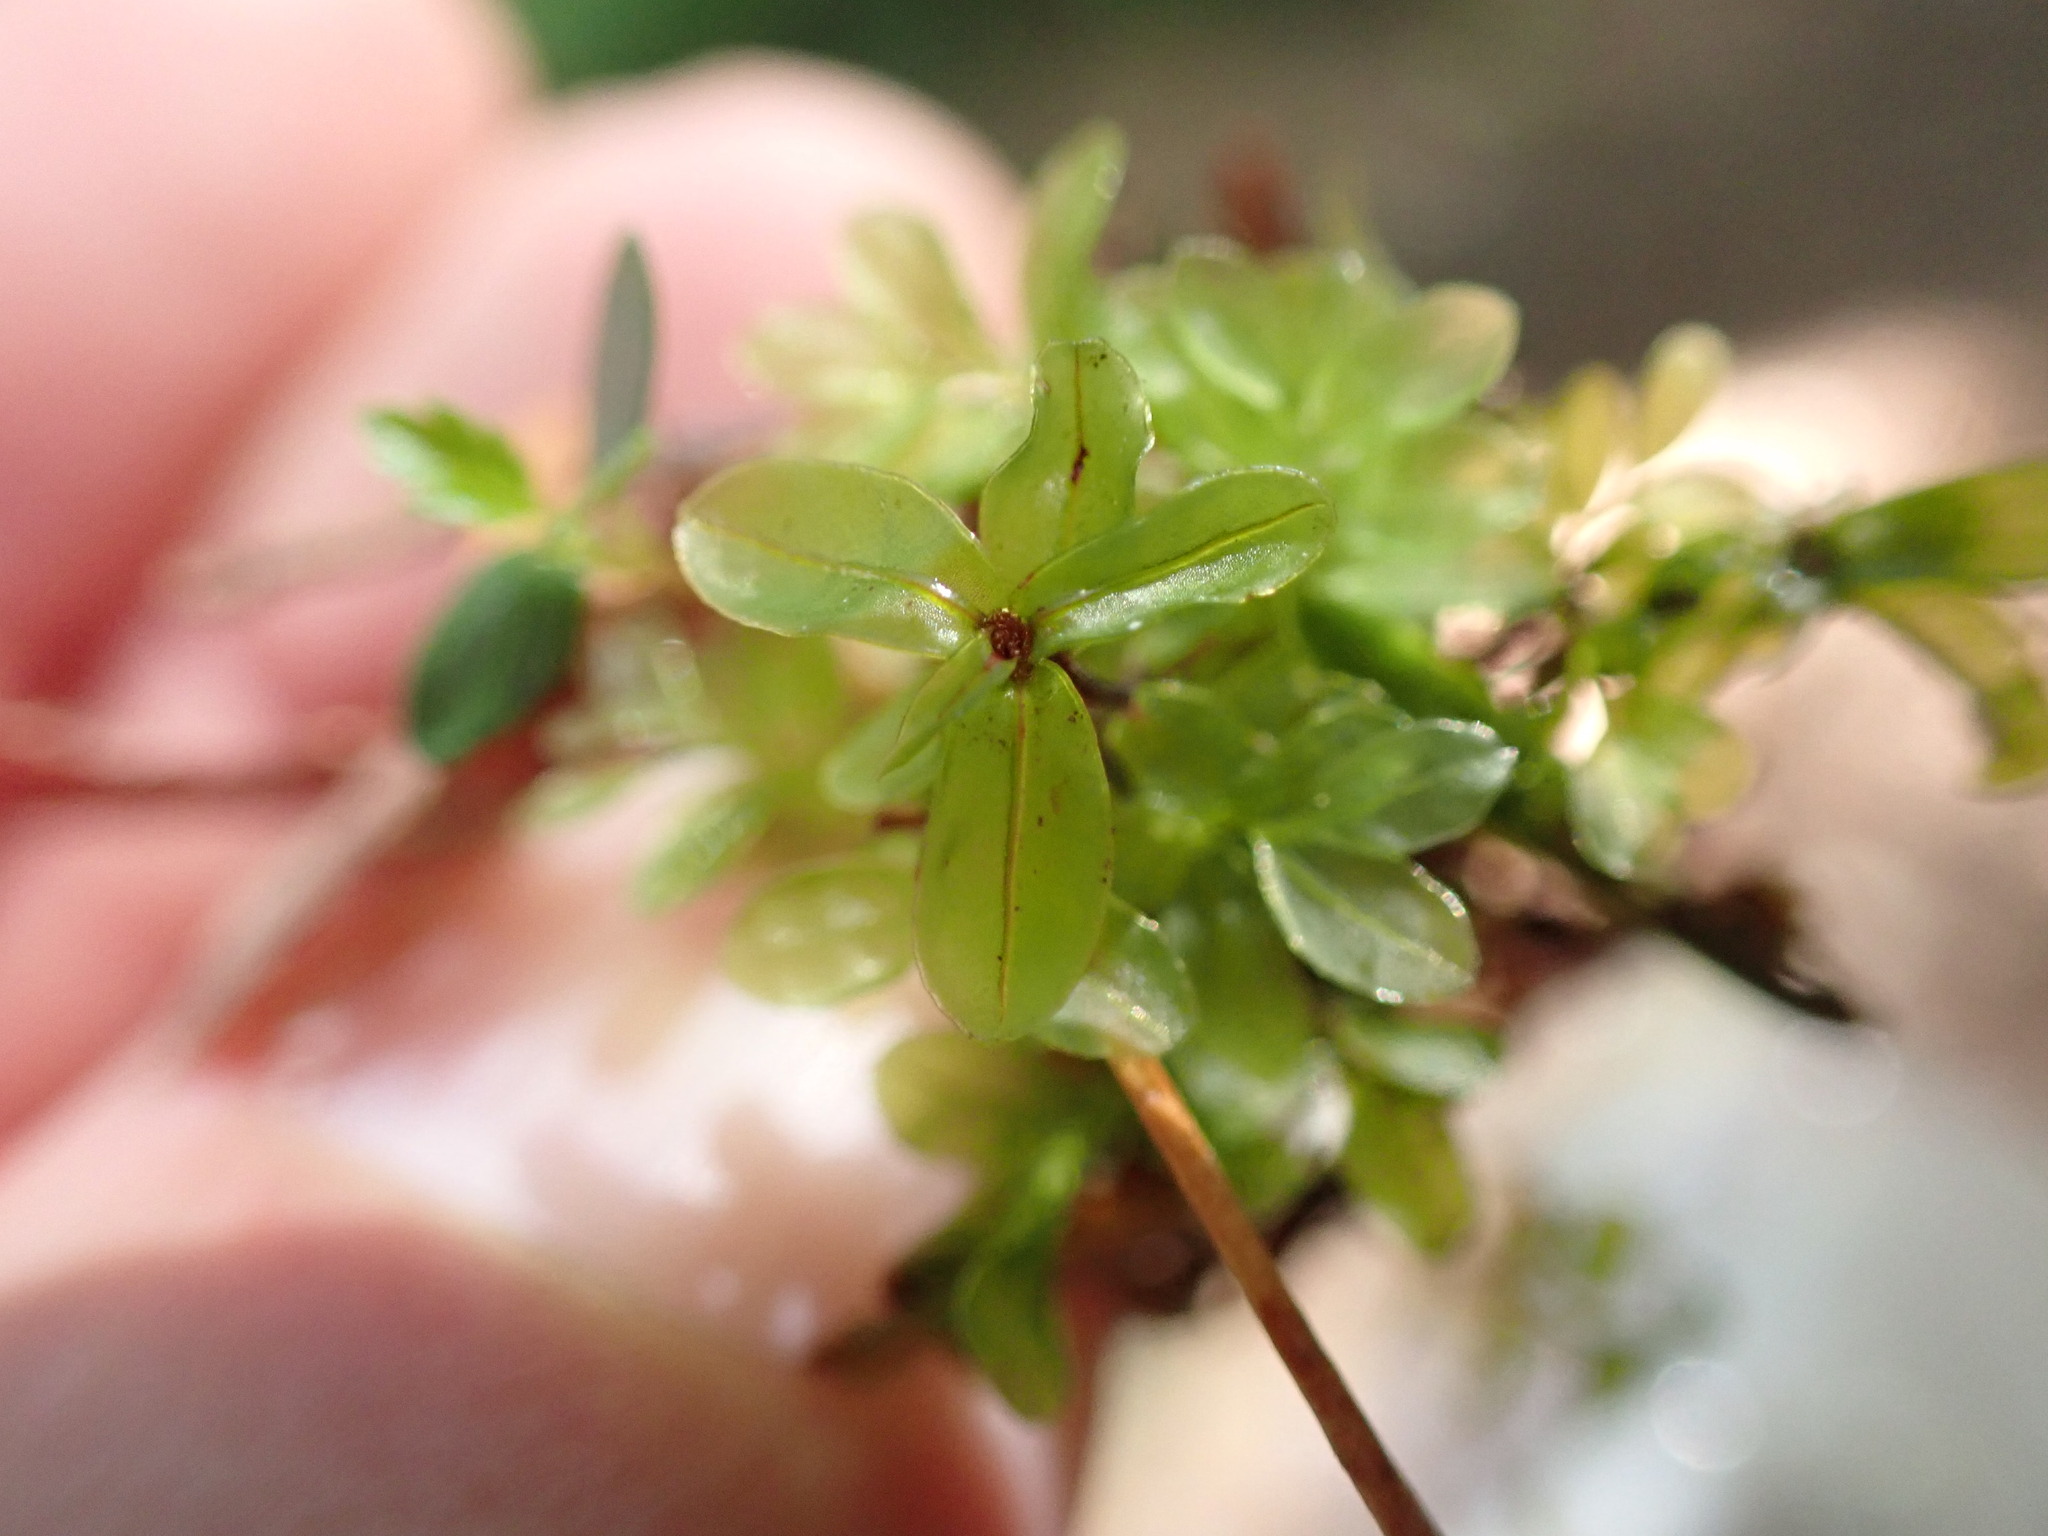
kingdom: Plantae
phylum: Bryophyta
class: Bryopsida
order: Bryales
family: Mniaceae
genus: Rhizomnium
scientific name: Rhizomnium glabrescens
